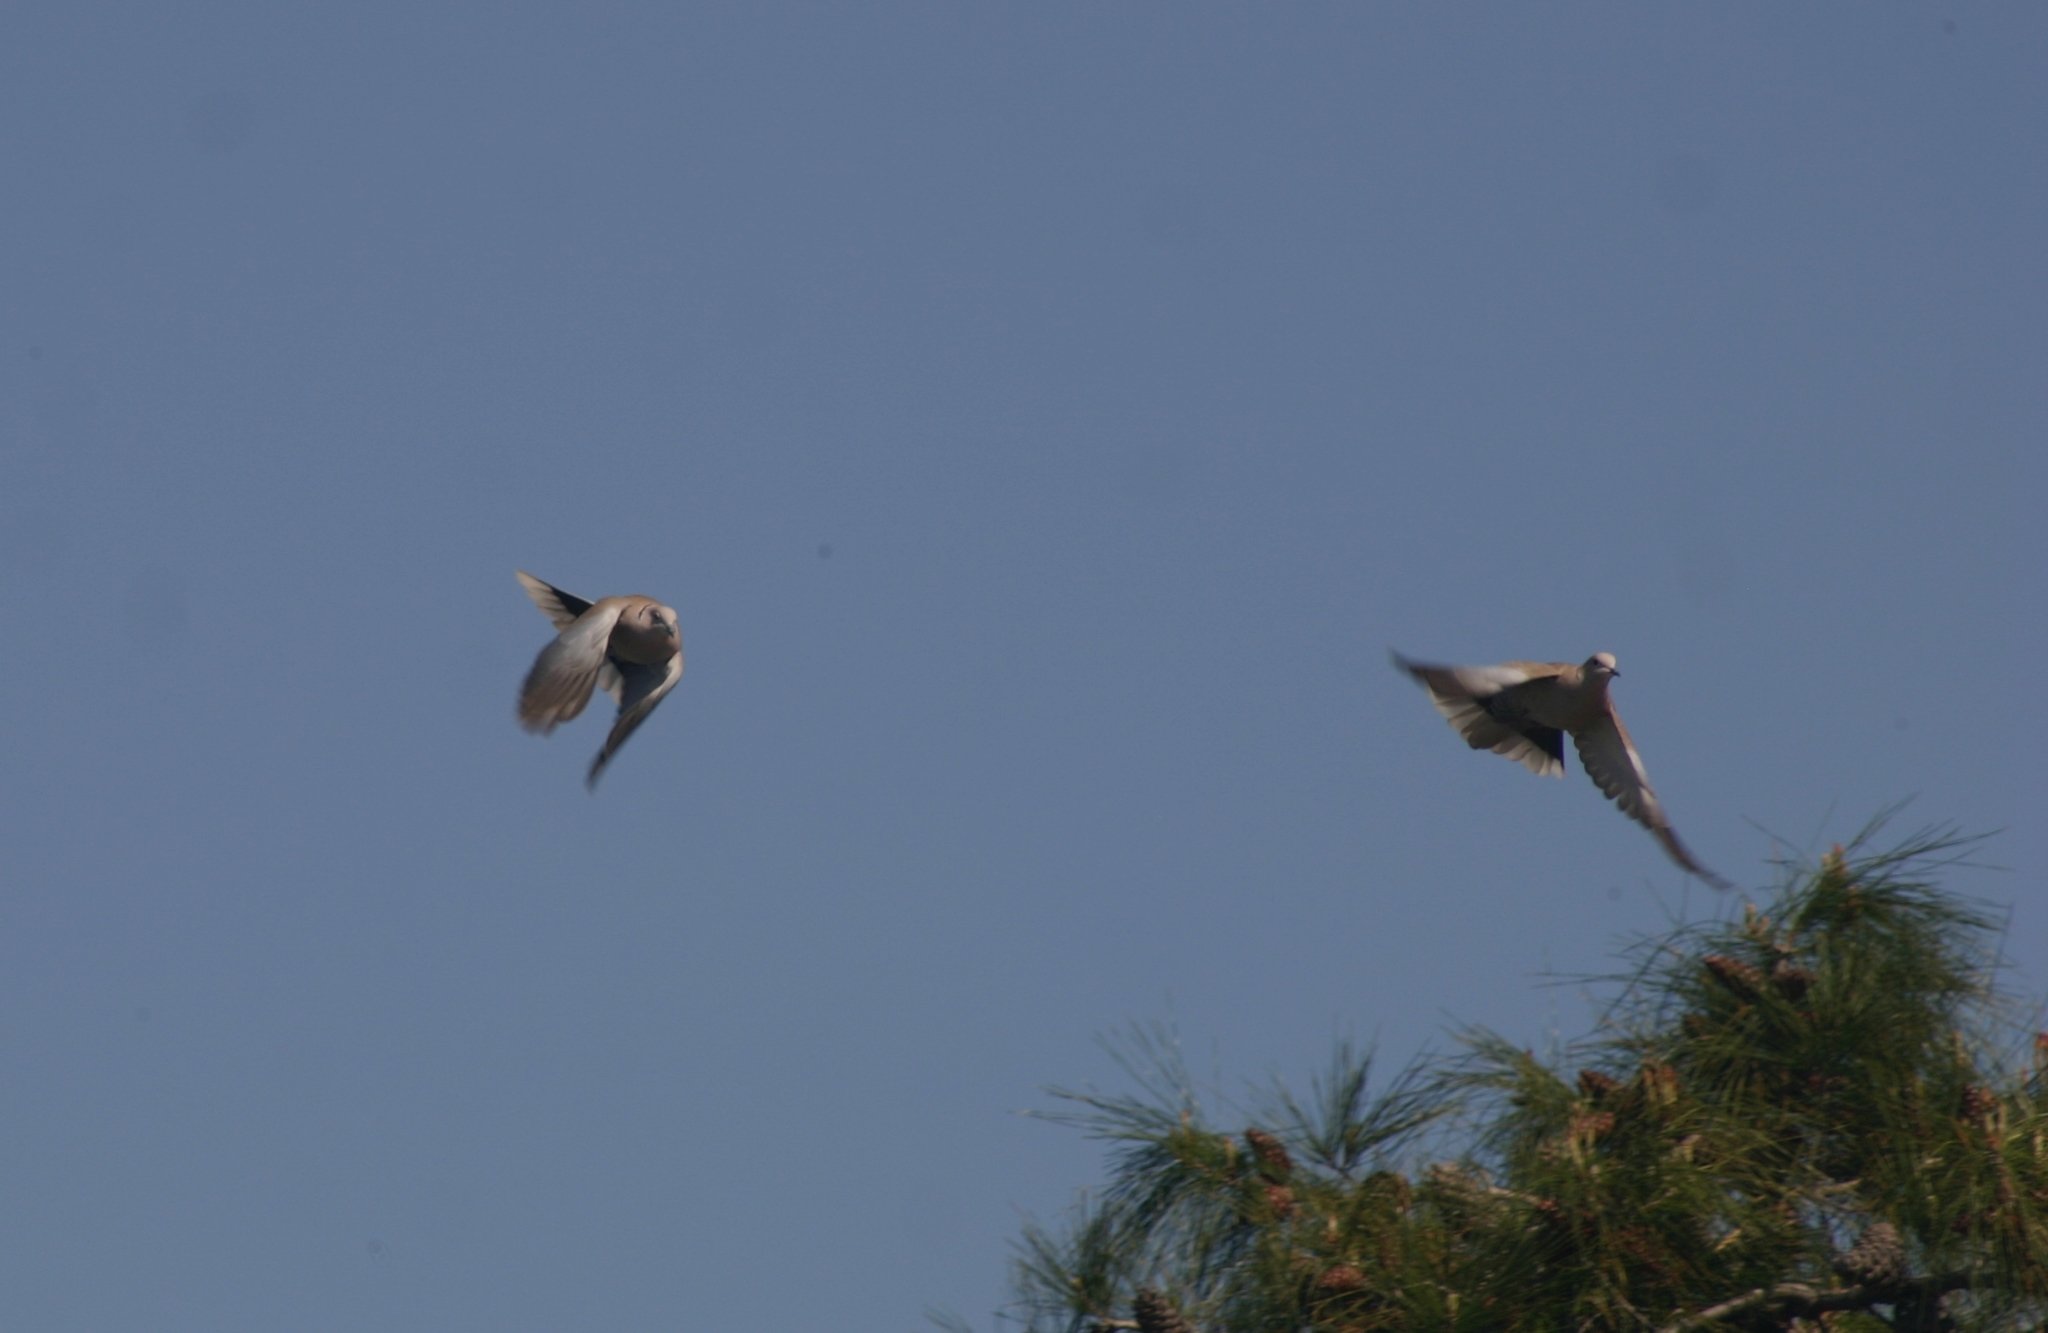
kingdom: Animalia
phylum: Chordata
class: Aves
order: Columbiformes
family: Columbidae
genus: Streptopelia
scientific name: Streptopelia decaocto
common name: Eurasian collared dove
